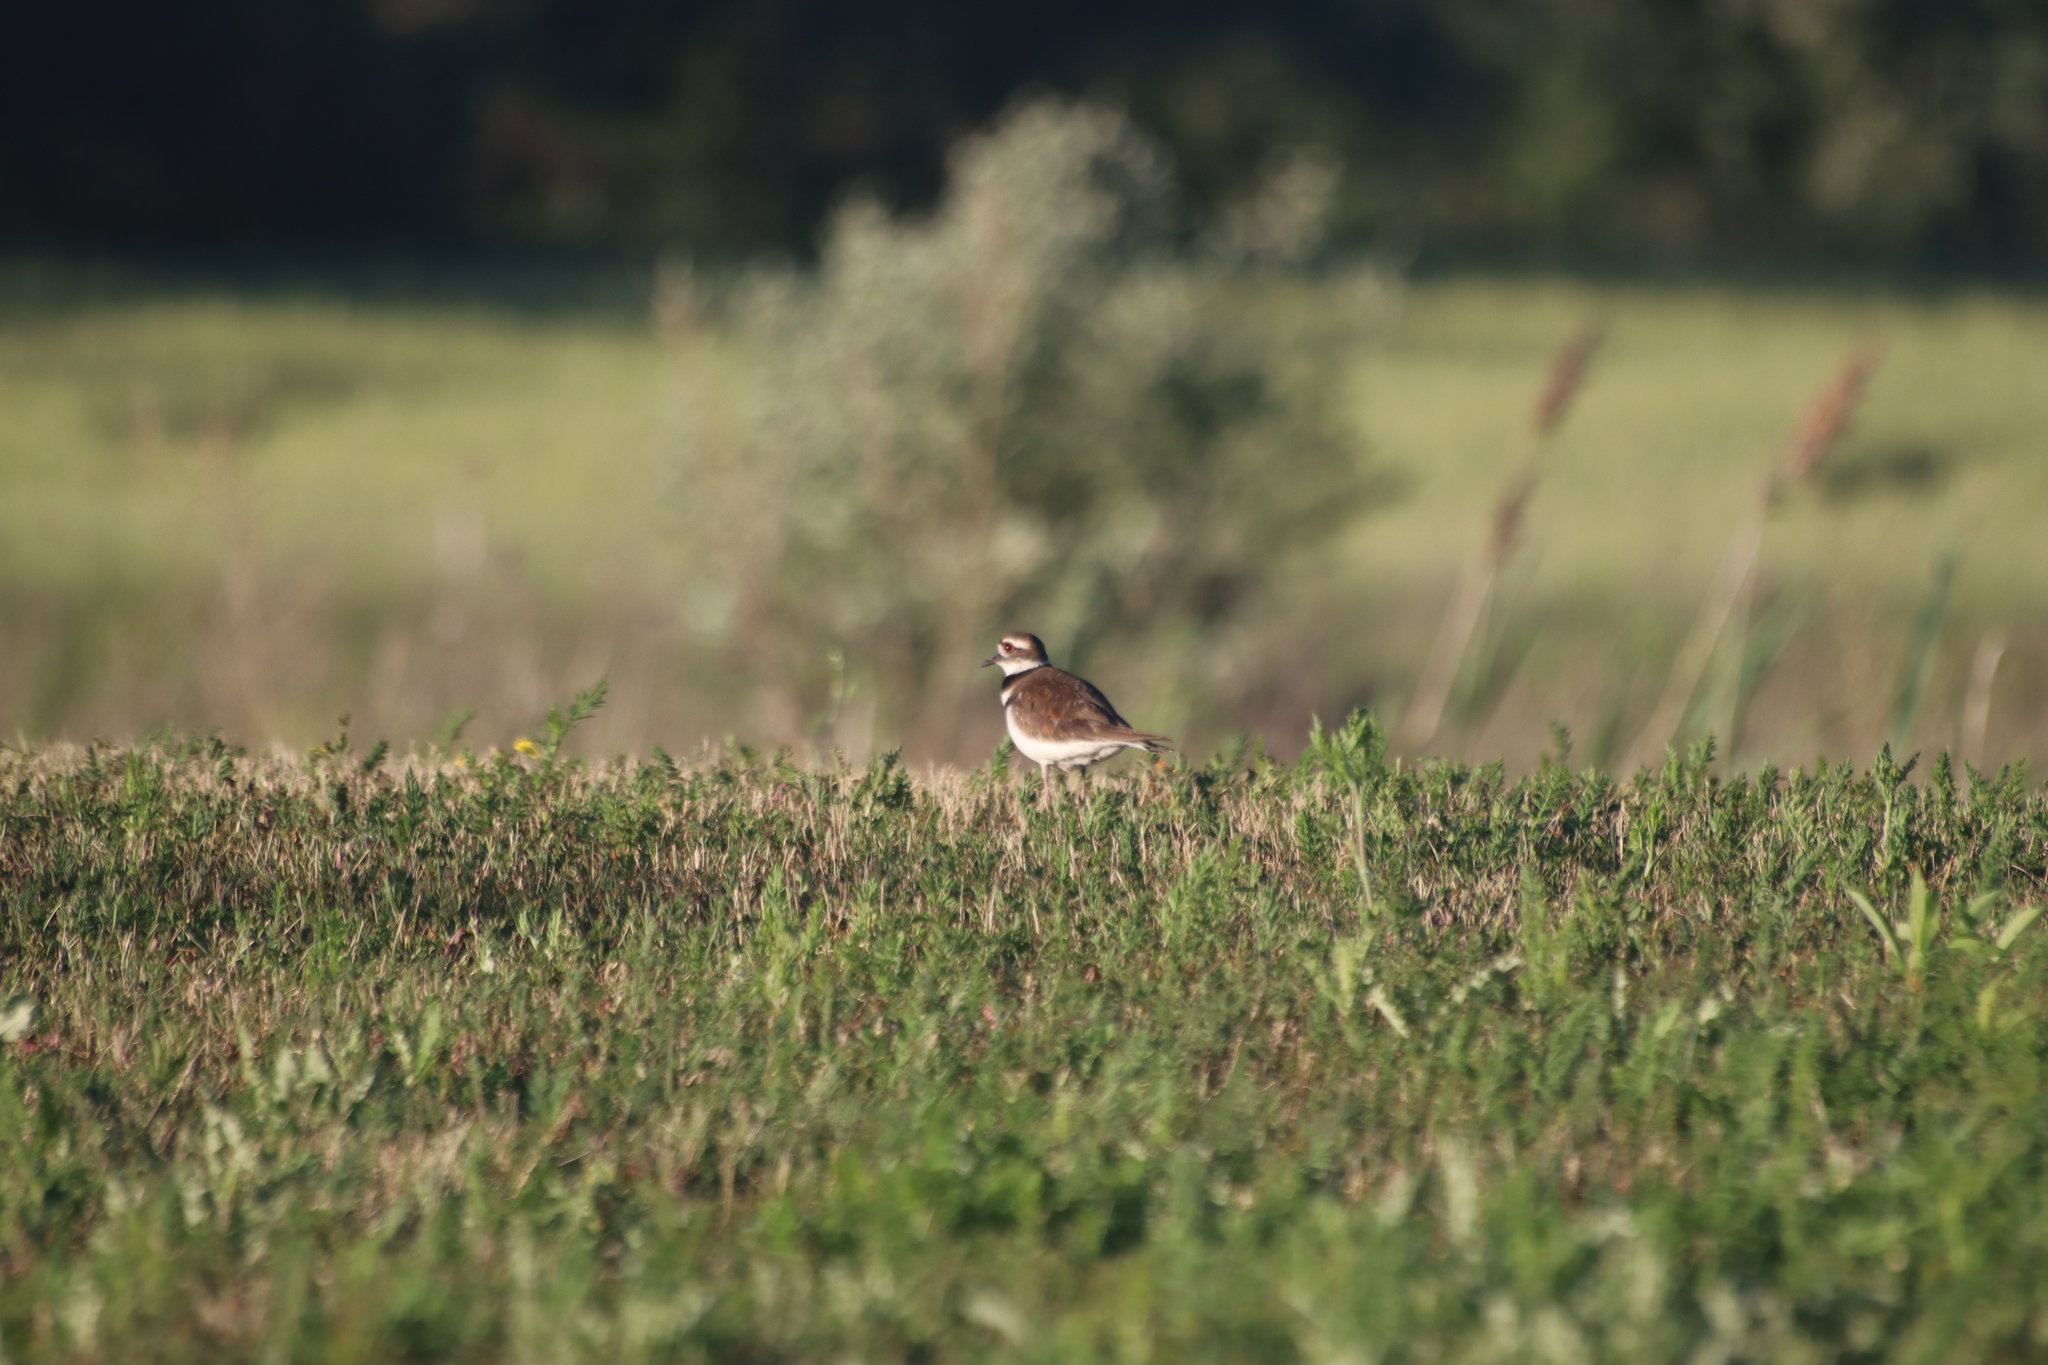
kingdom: Animalia
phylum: Chordata
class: Aves
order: Charadriiformes
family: Charadriidae
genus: Charadrius
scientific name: Charadrius vociferus
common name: Killdeer
